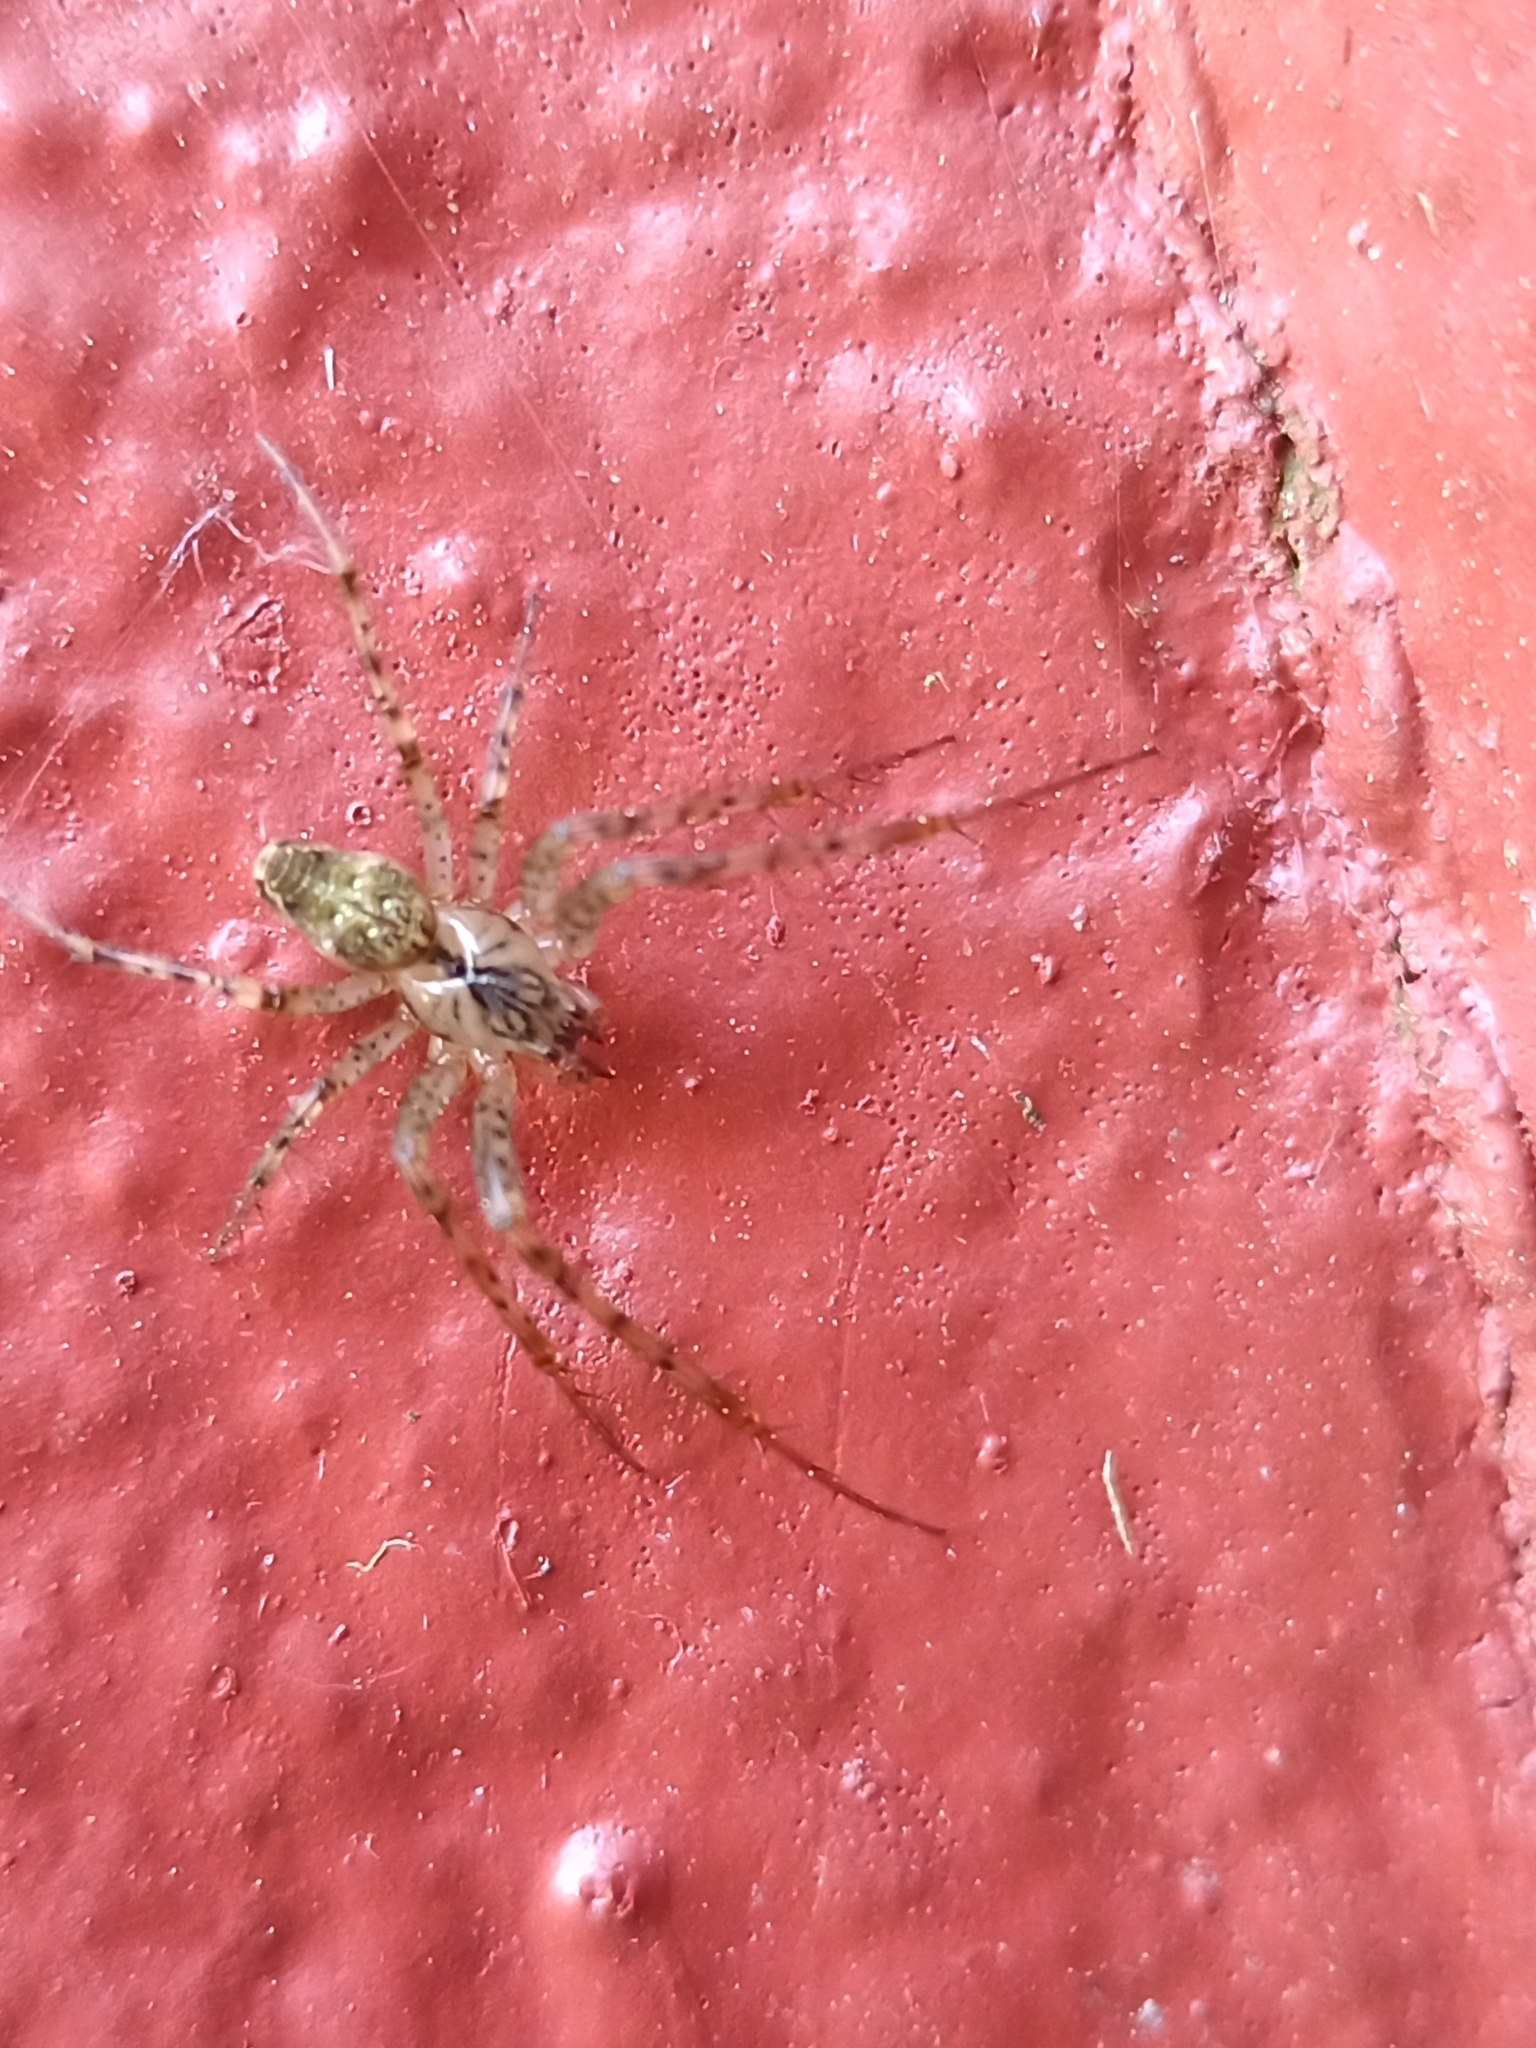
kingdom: Animalia
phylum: Arthropoda
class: Arachnida
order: Araneae
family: Tetragnathidae
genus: Metellina
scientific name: Metellina merianae
